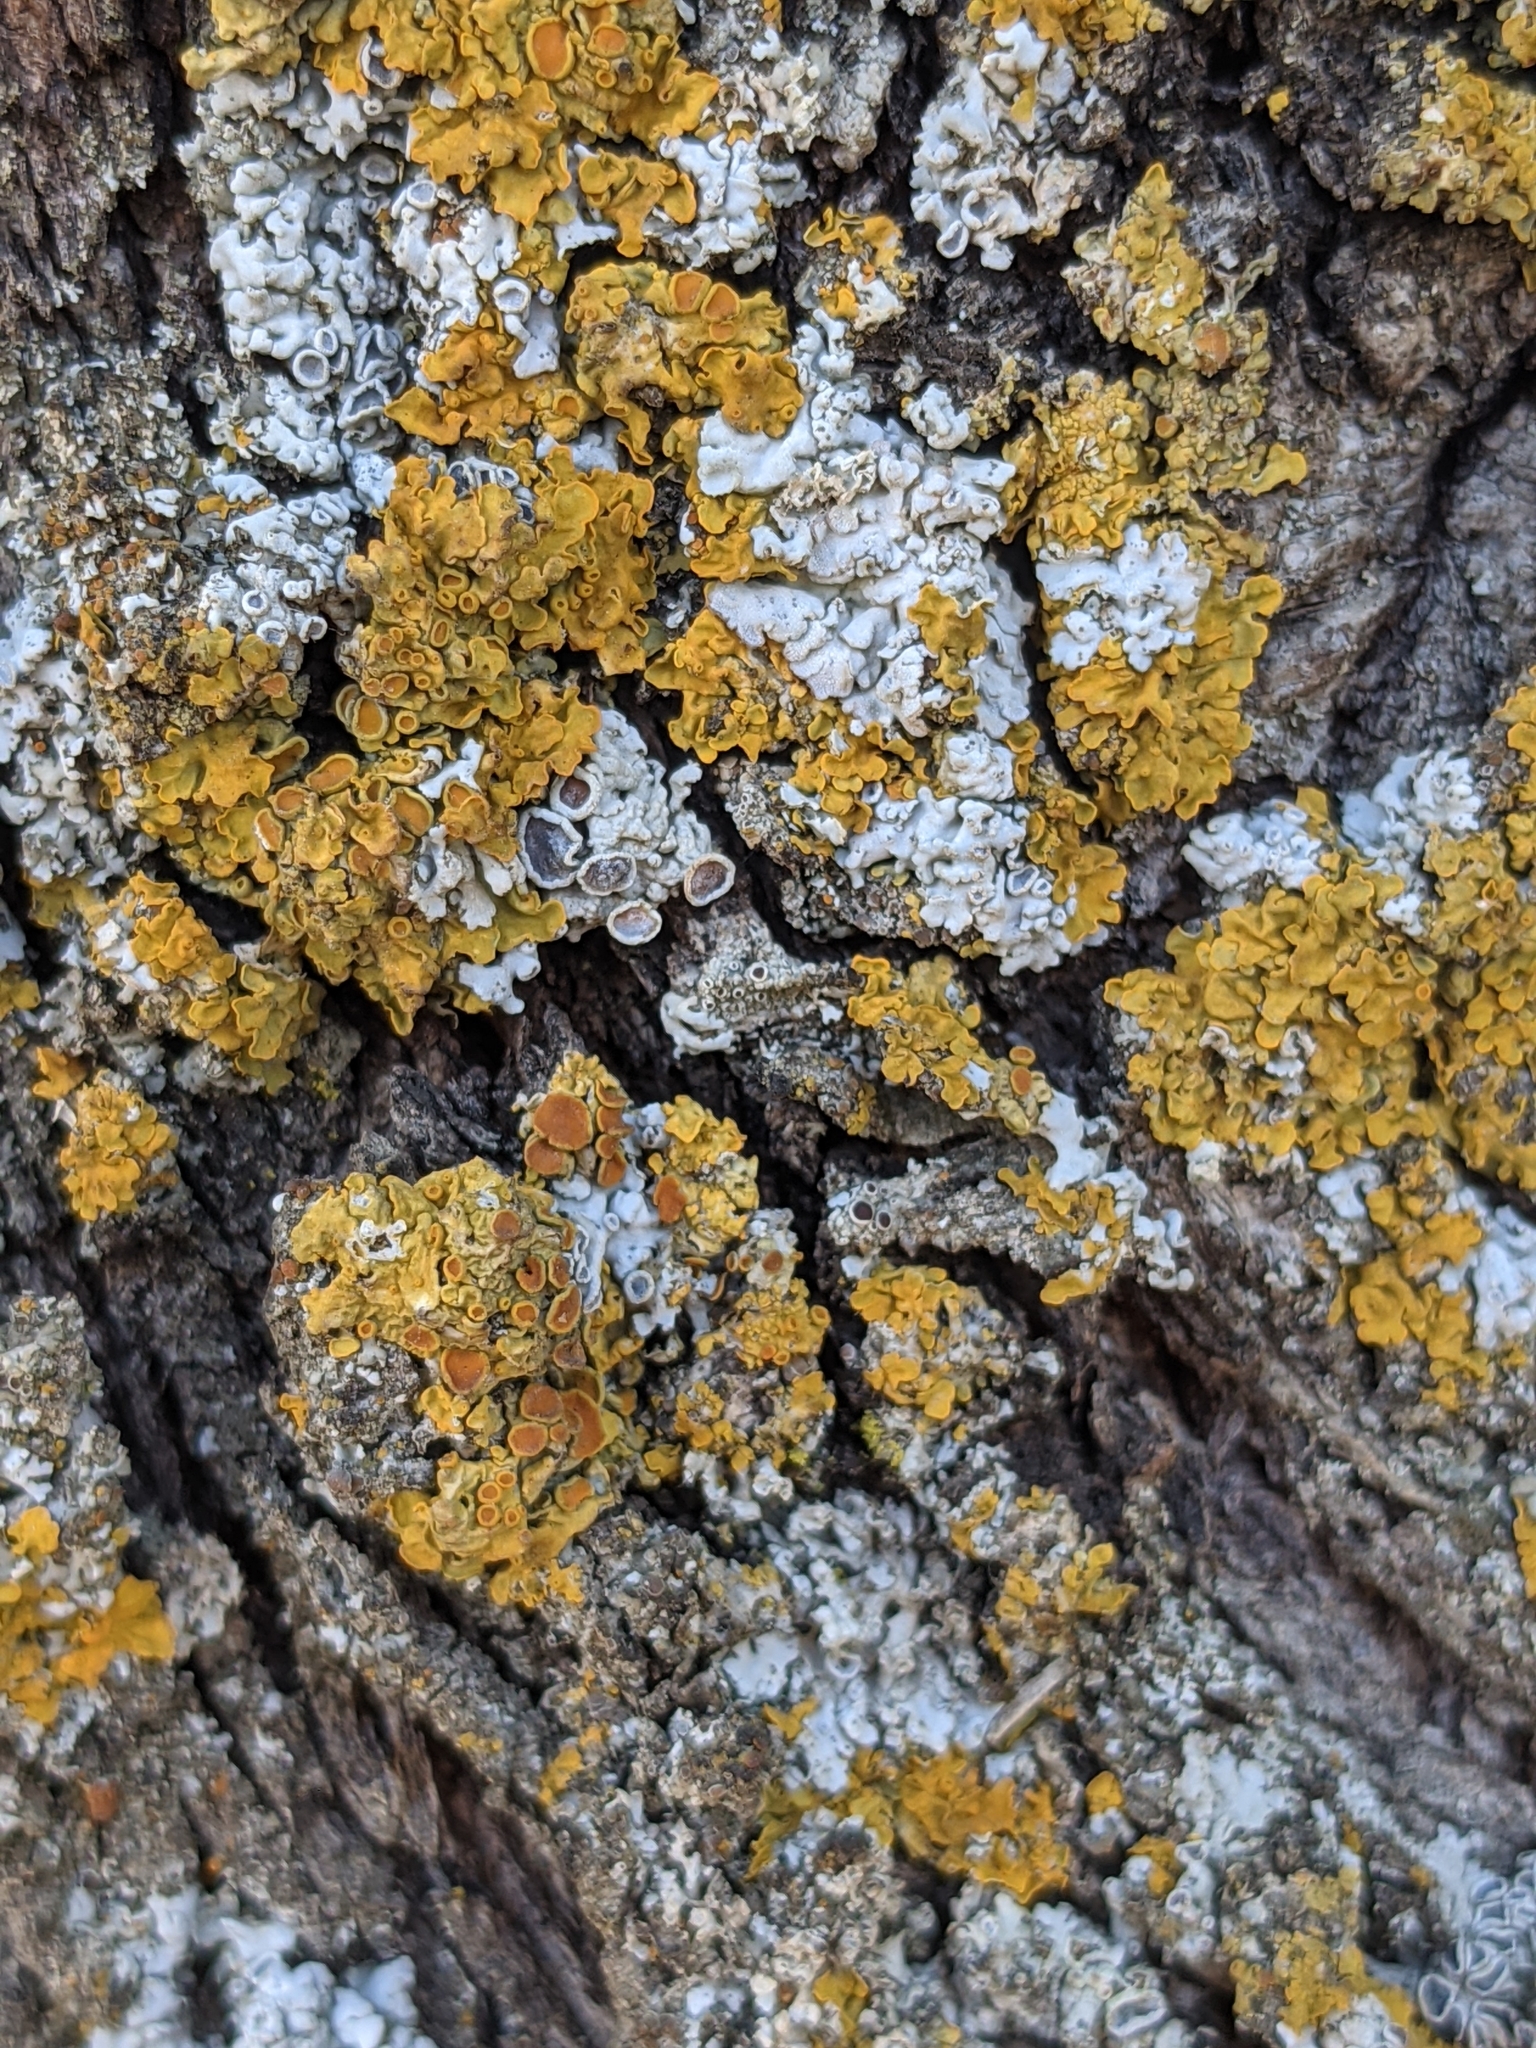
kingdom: Fungi
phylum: Ascomycota
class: Lecanoromycetes
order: Teloschistales
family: Teloschistaceae
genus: Xanthoria
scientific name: Xanthoria parietina
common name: Common orange lichen
